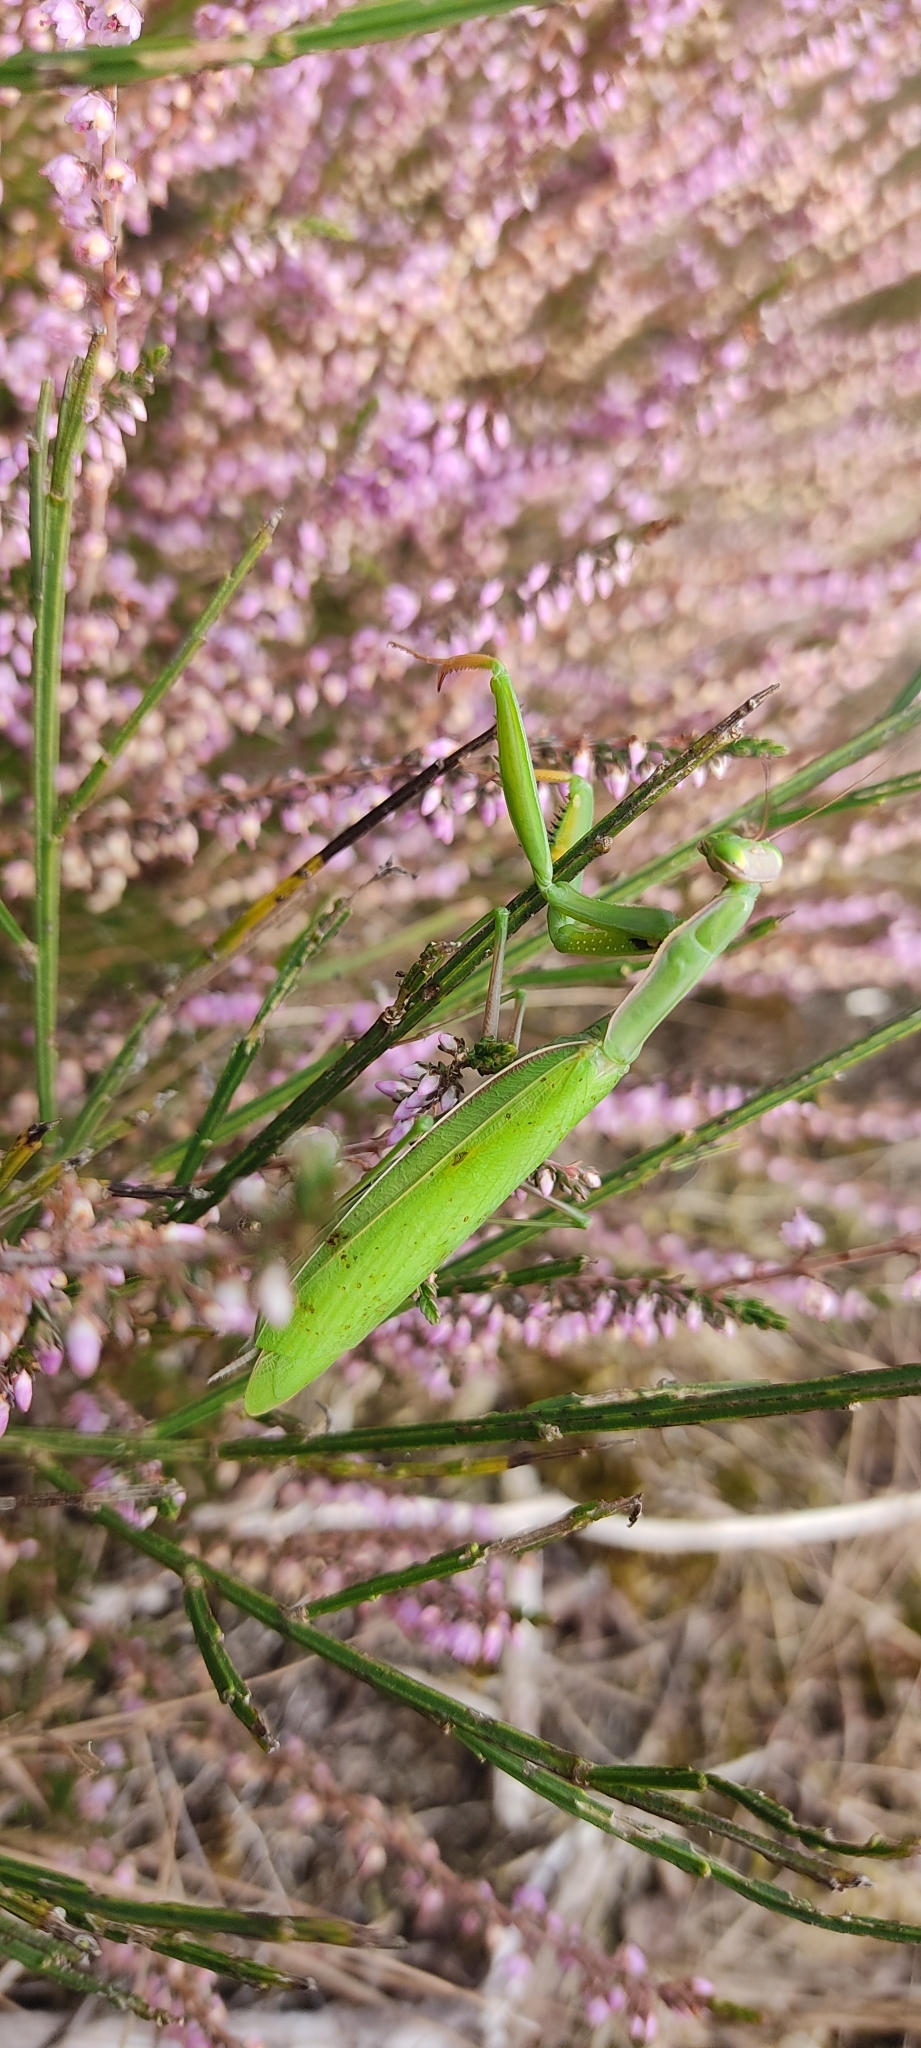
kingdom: Animalia
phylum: Arthropoda
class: Insecta
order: Mantodea
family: Mantidae
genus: Mantis
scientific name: Mantis religiosa
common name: Praying mantis
